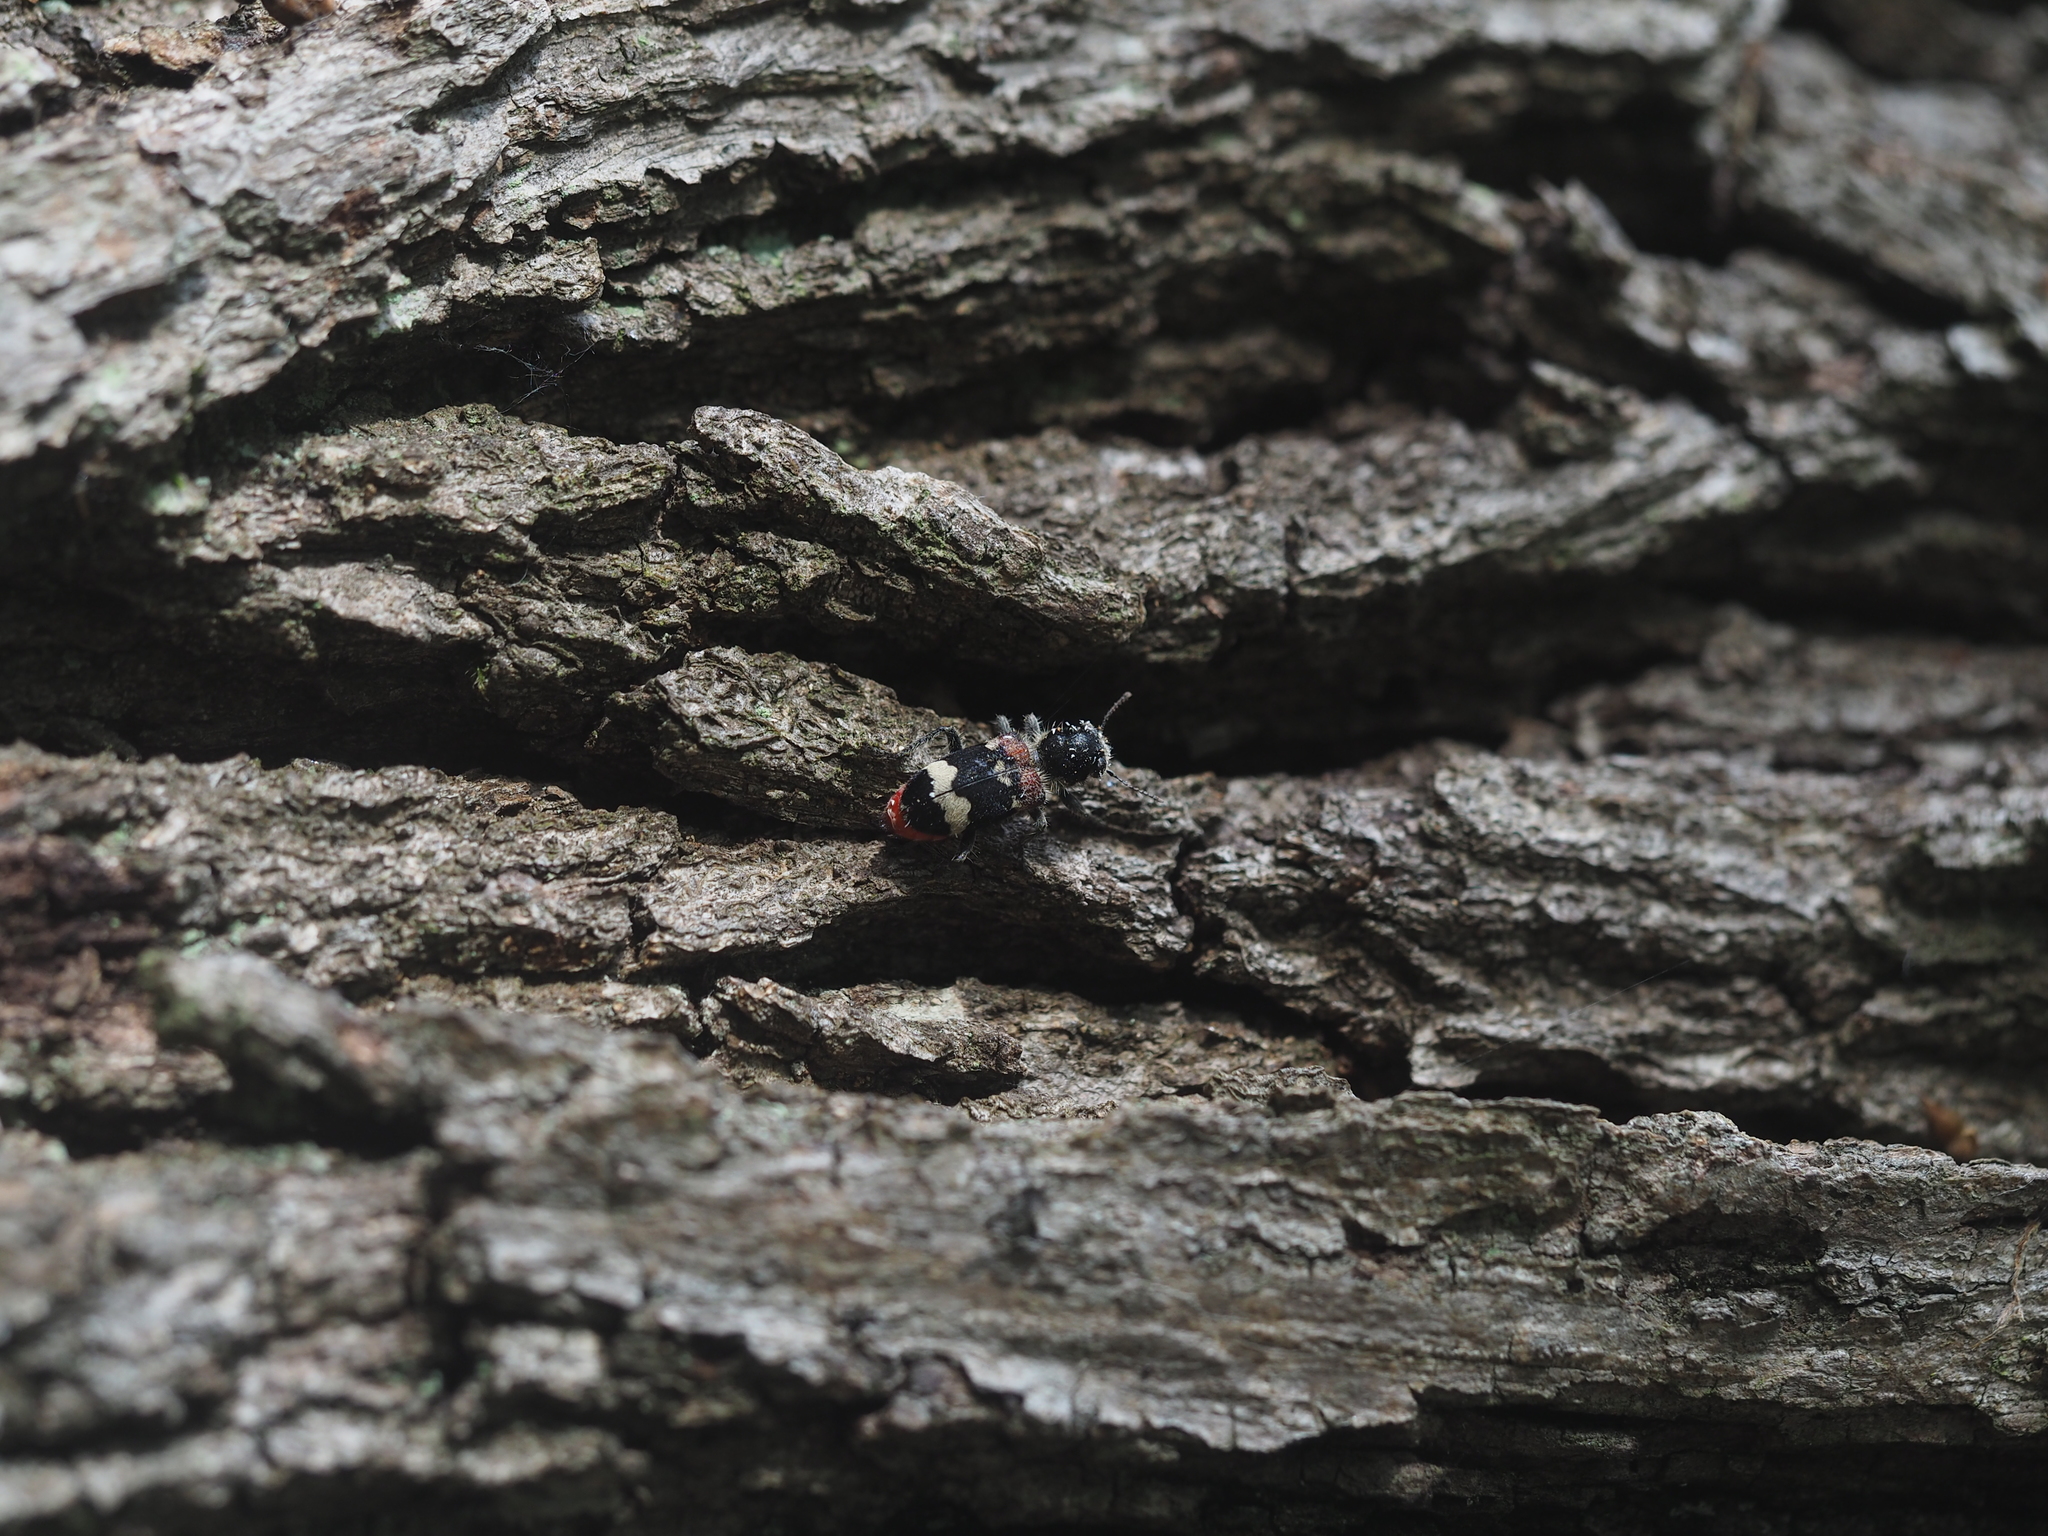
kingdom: Animalia
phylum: Arthropoda
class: Insecta
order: Coleoptera
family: Cleridae
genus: Clerus
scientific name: Clerus mutillarius
